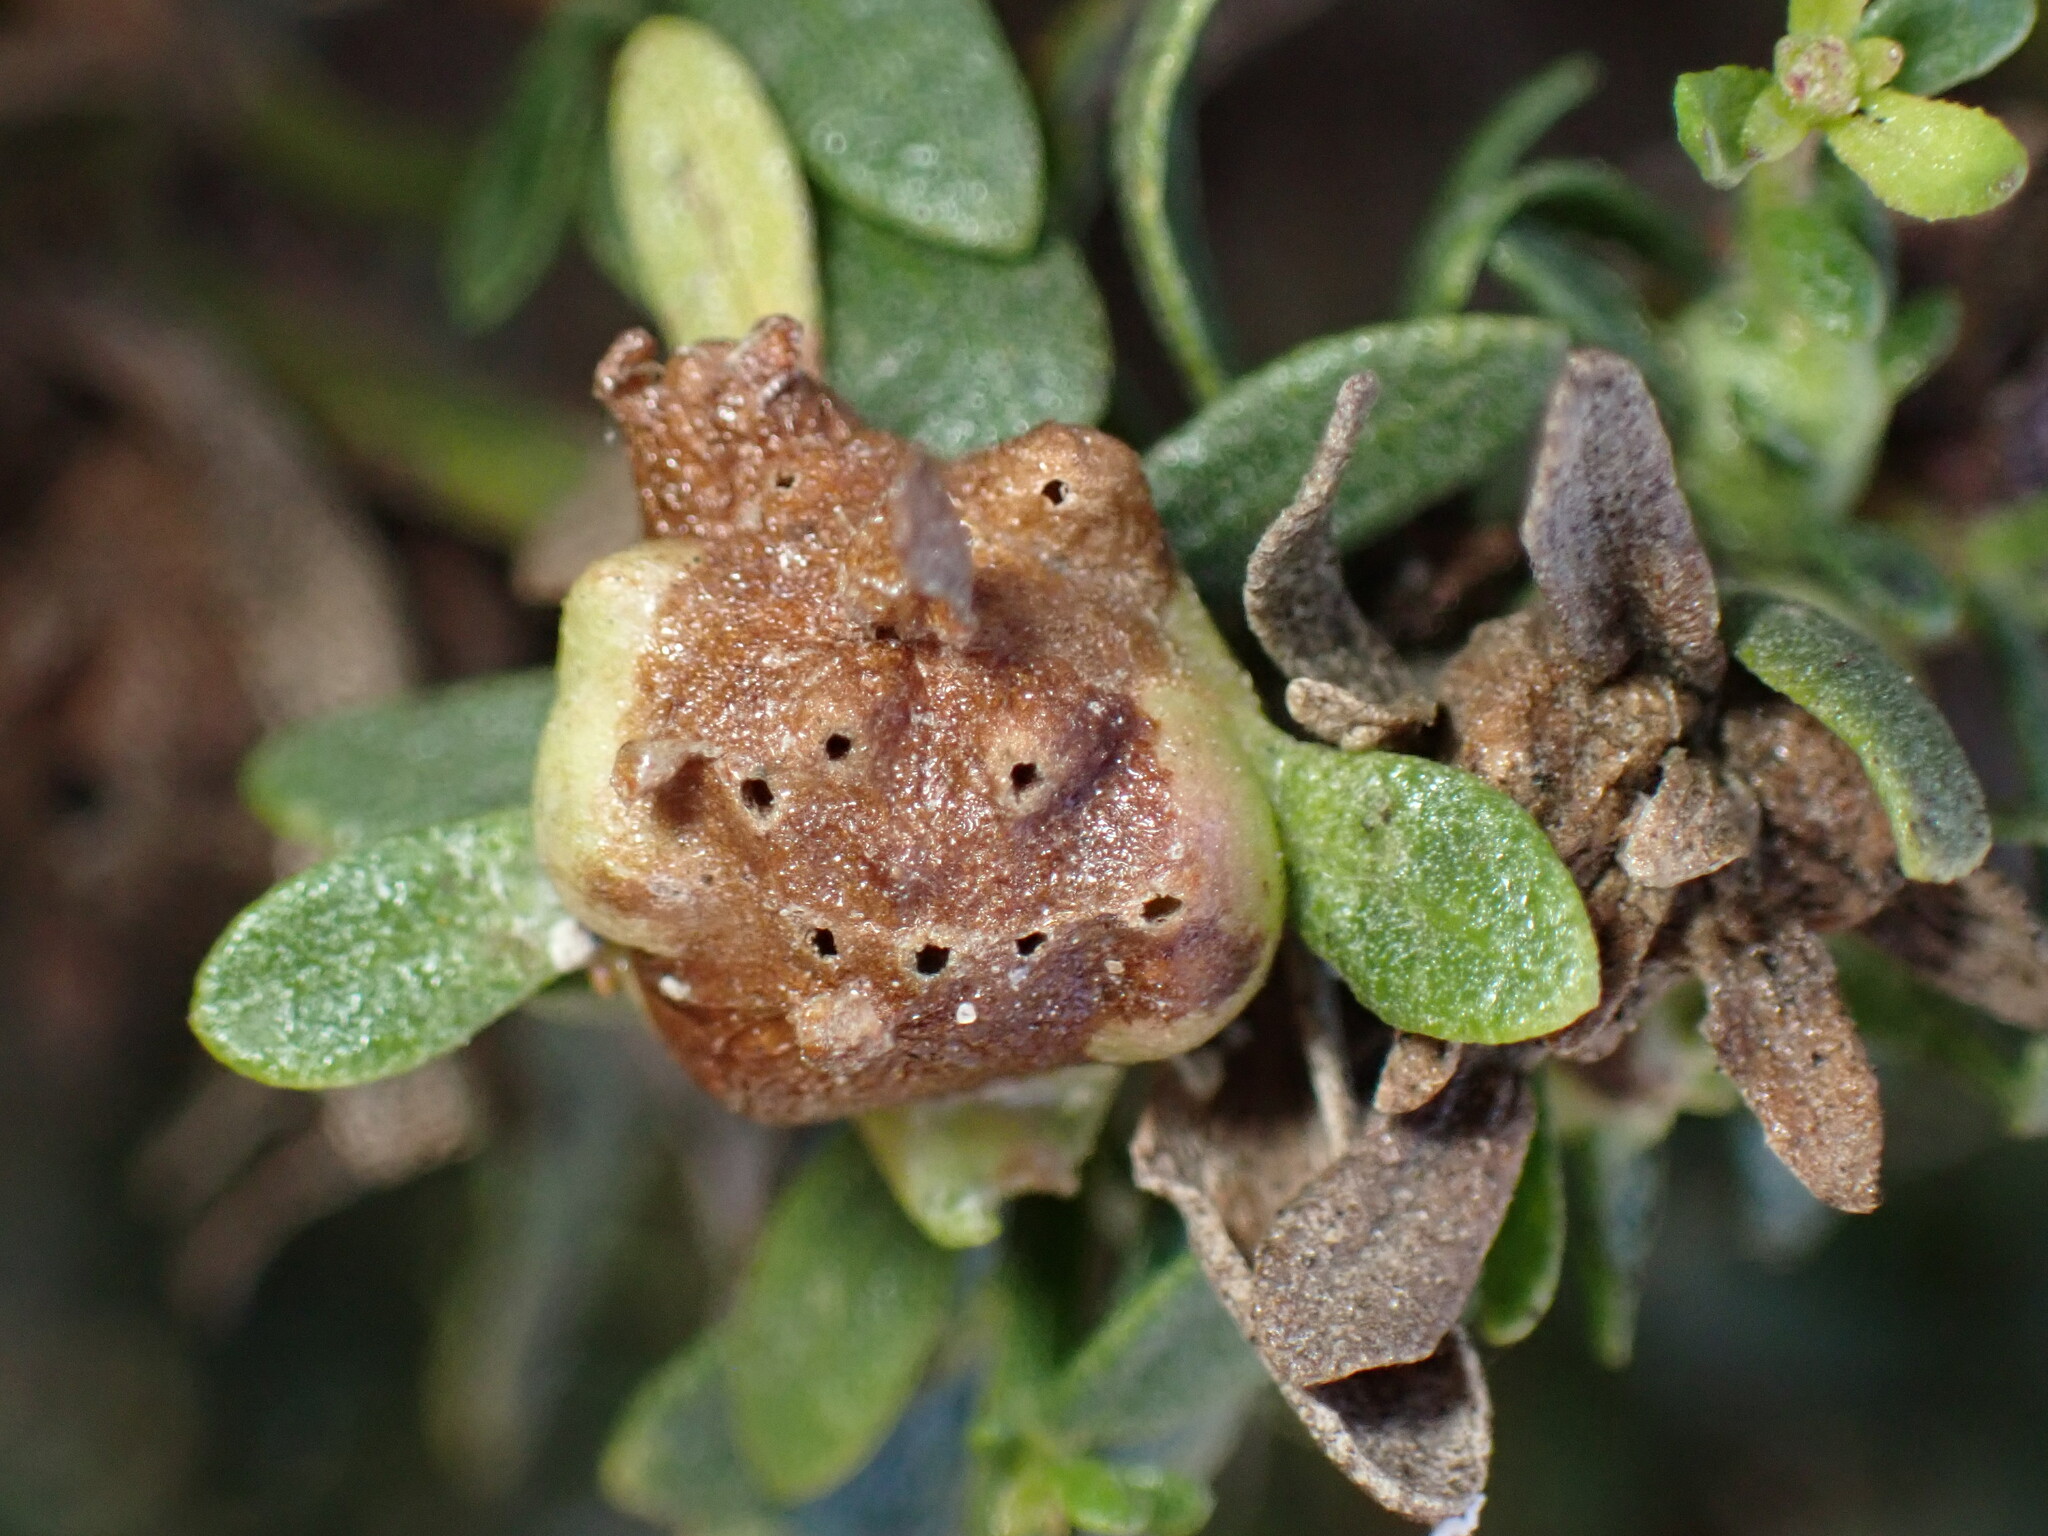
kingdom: Animalia
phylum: Arthropoda
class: Insecta
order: Diptera
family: Cecidomyiidae
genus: Rhopalomyia
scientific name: Rhopalomyia californica
